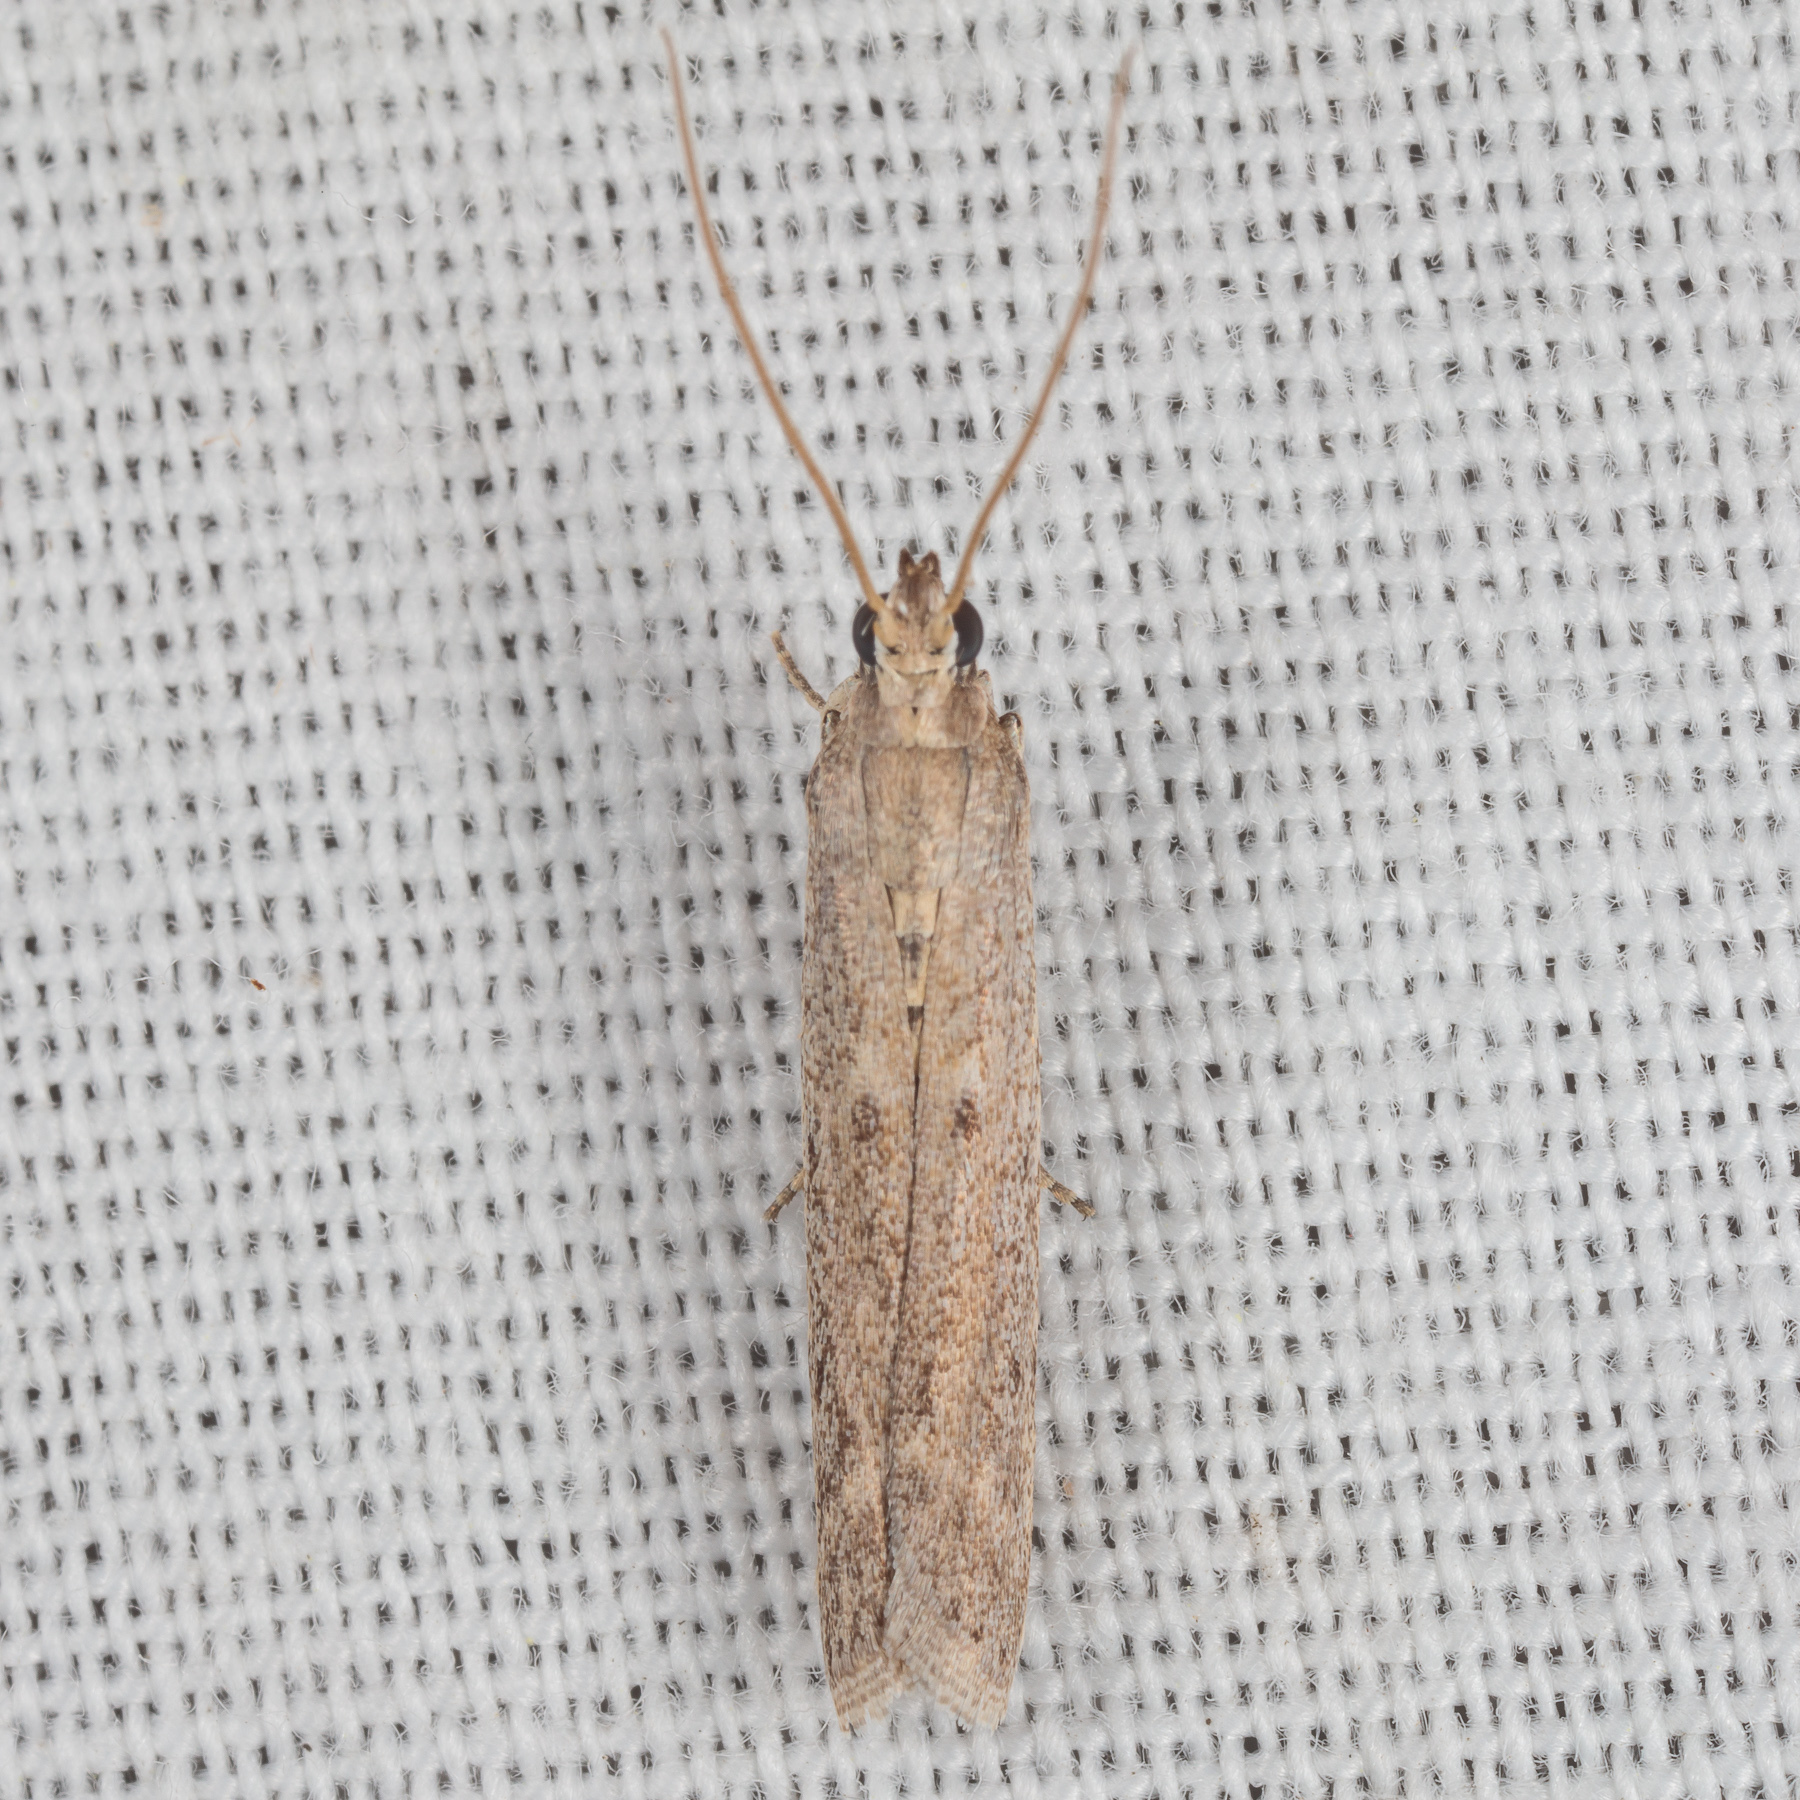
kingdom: Animalia
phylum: Arthropoda
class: Insecta
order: Lepidoptera
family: Pyralidae
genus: Homoeosoma
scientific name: Homoeosoma electella
